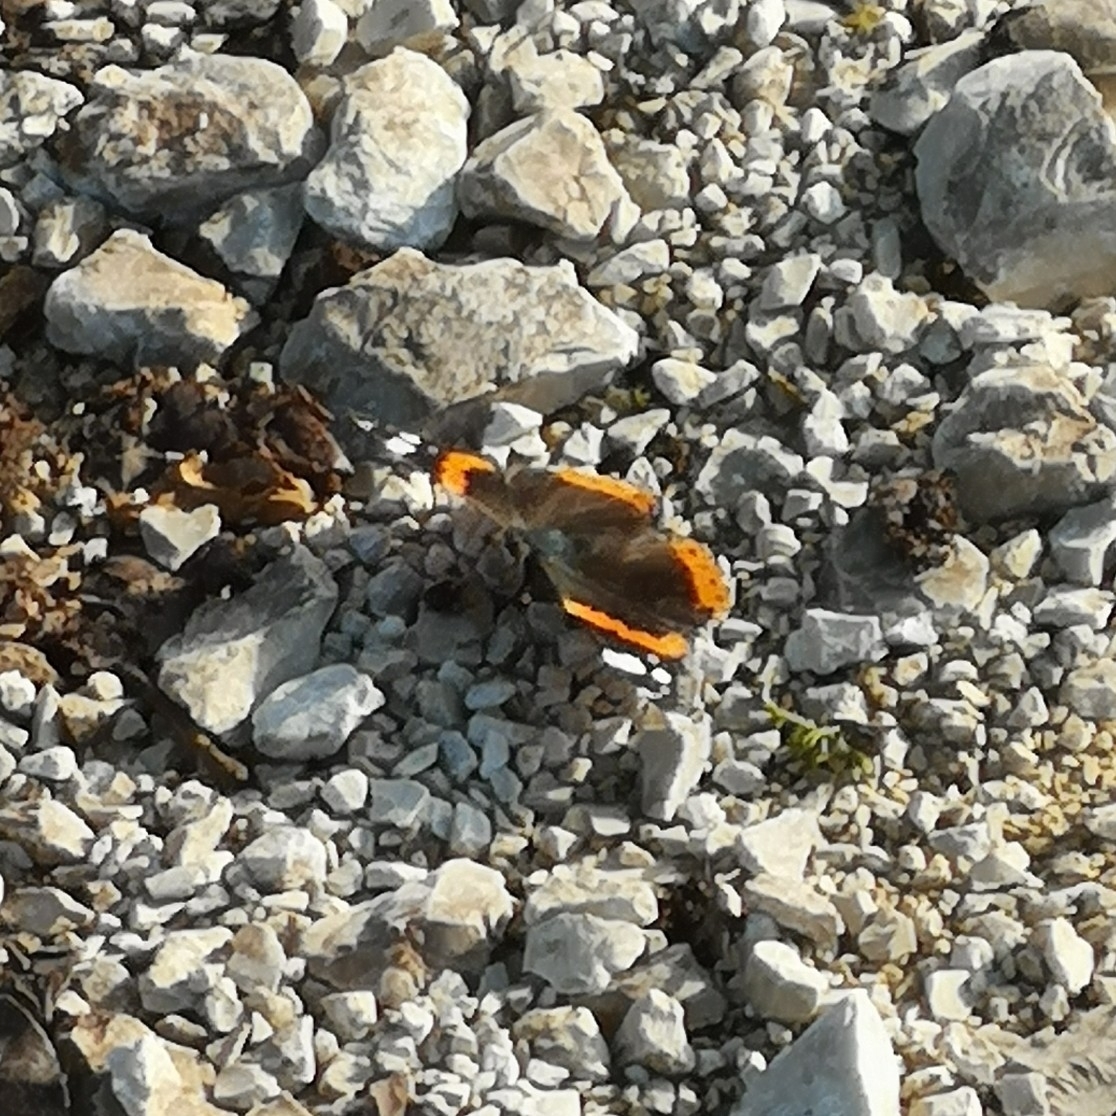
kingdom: Animalia
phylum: Arthropoda
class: Insecta
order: Lepidoptera
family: Nymphalidae
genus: Vanessa
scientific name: Vanessa atalanta
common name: Red admiral
